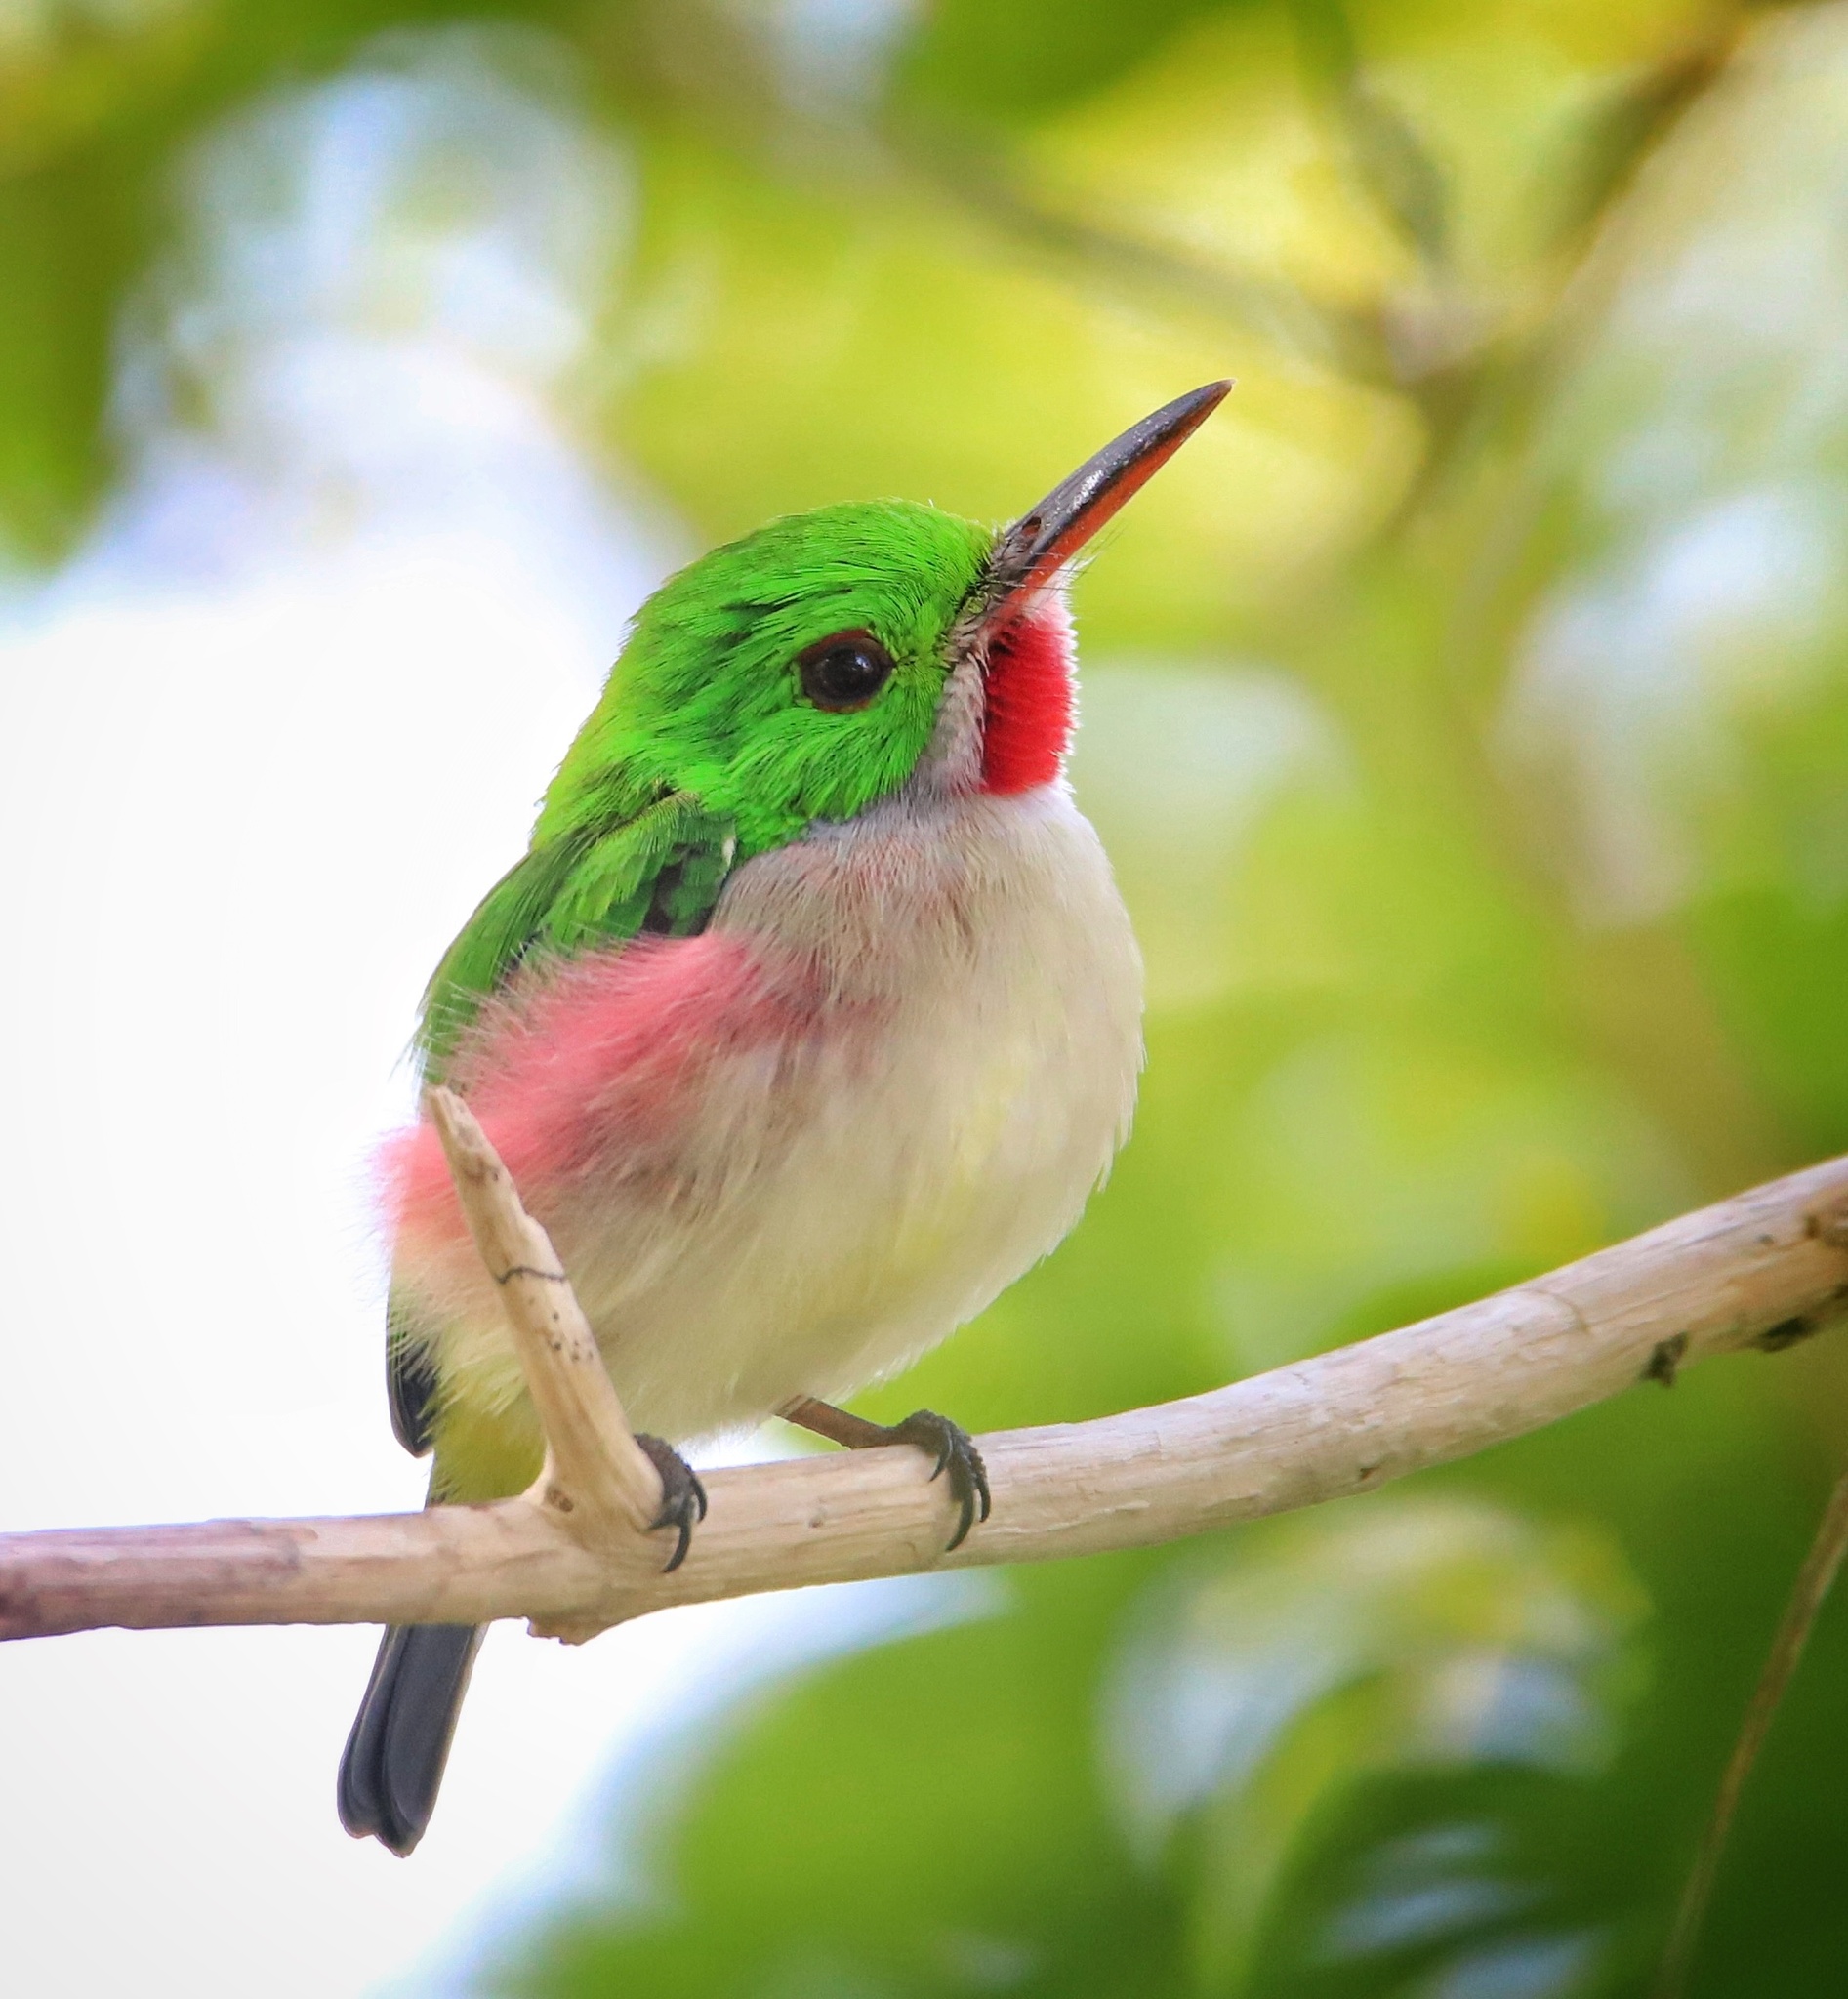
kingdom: Animalia
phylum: Chordata
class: Aves
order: Coraciiformes
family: Todidae
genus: Todus
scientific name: Todus subulatus
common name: Broad-billed tody
